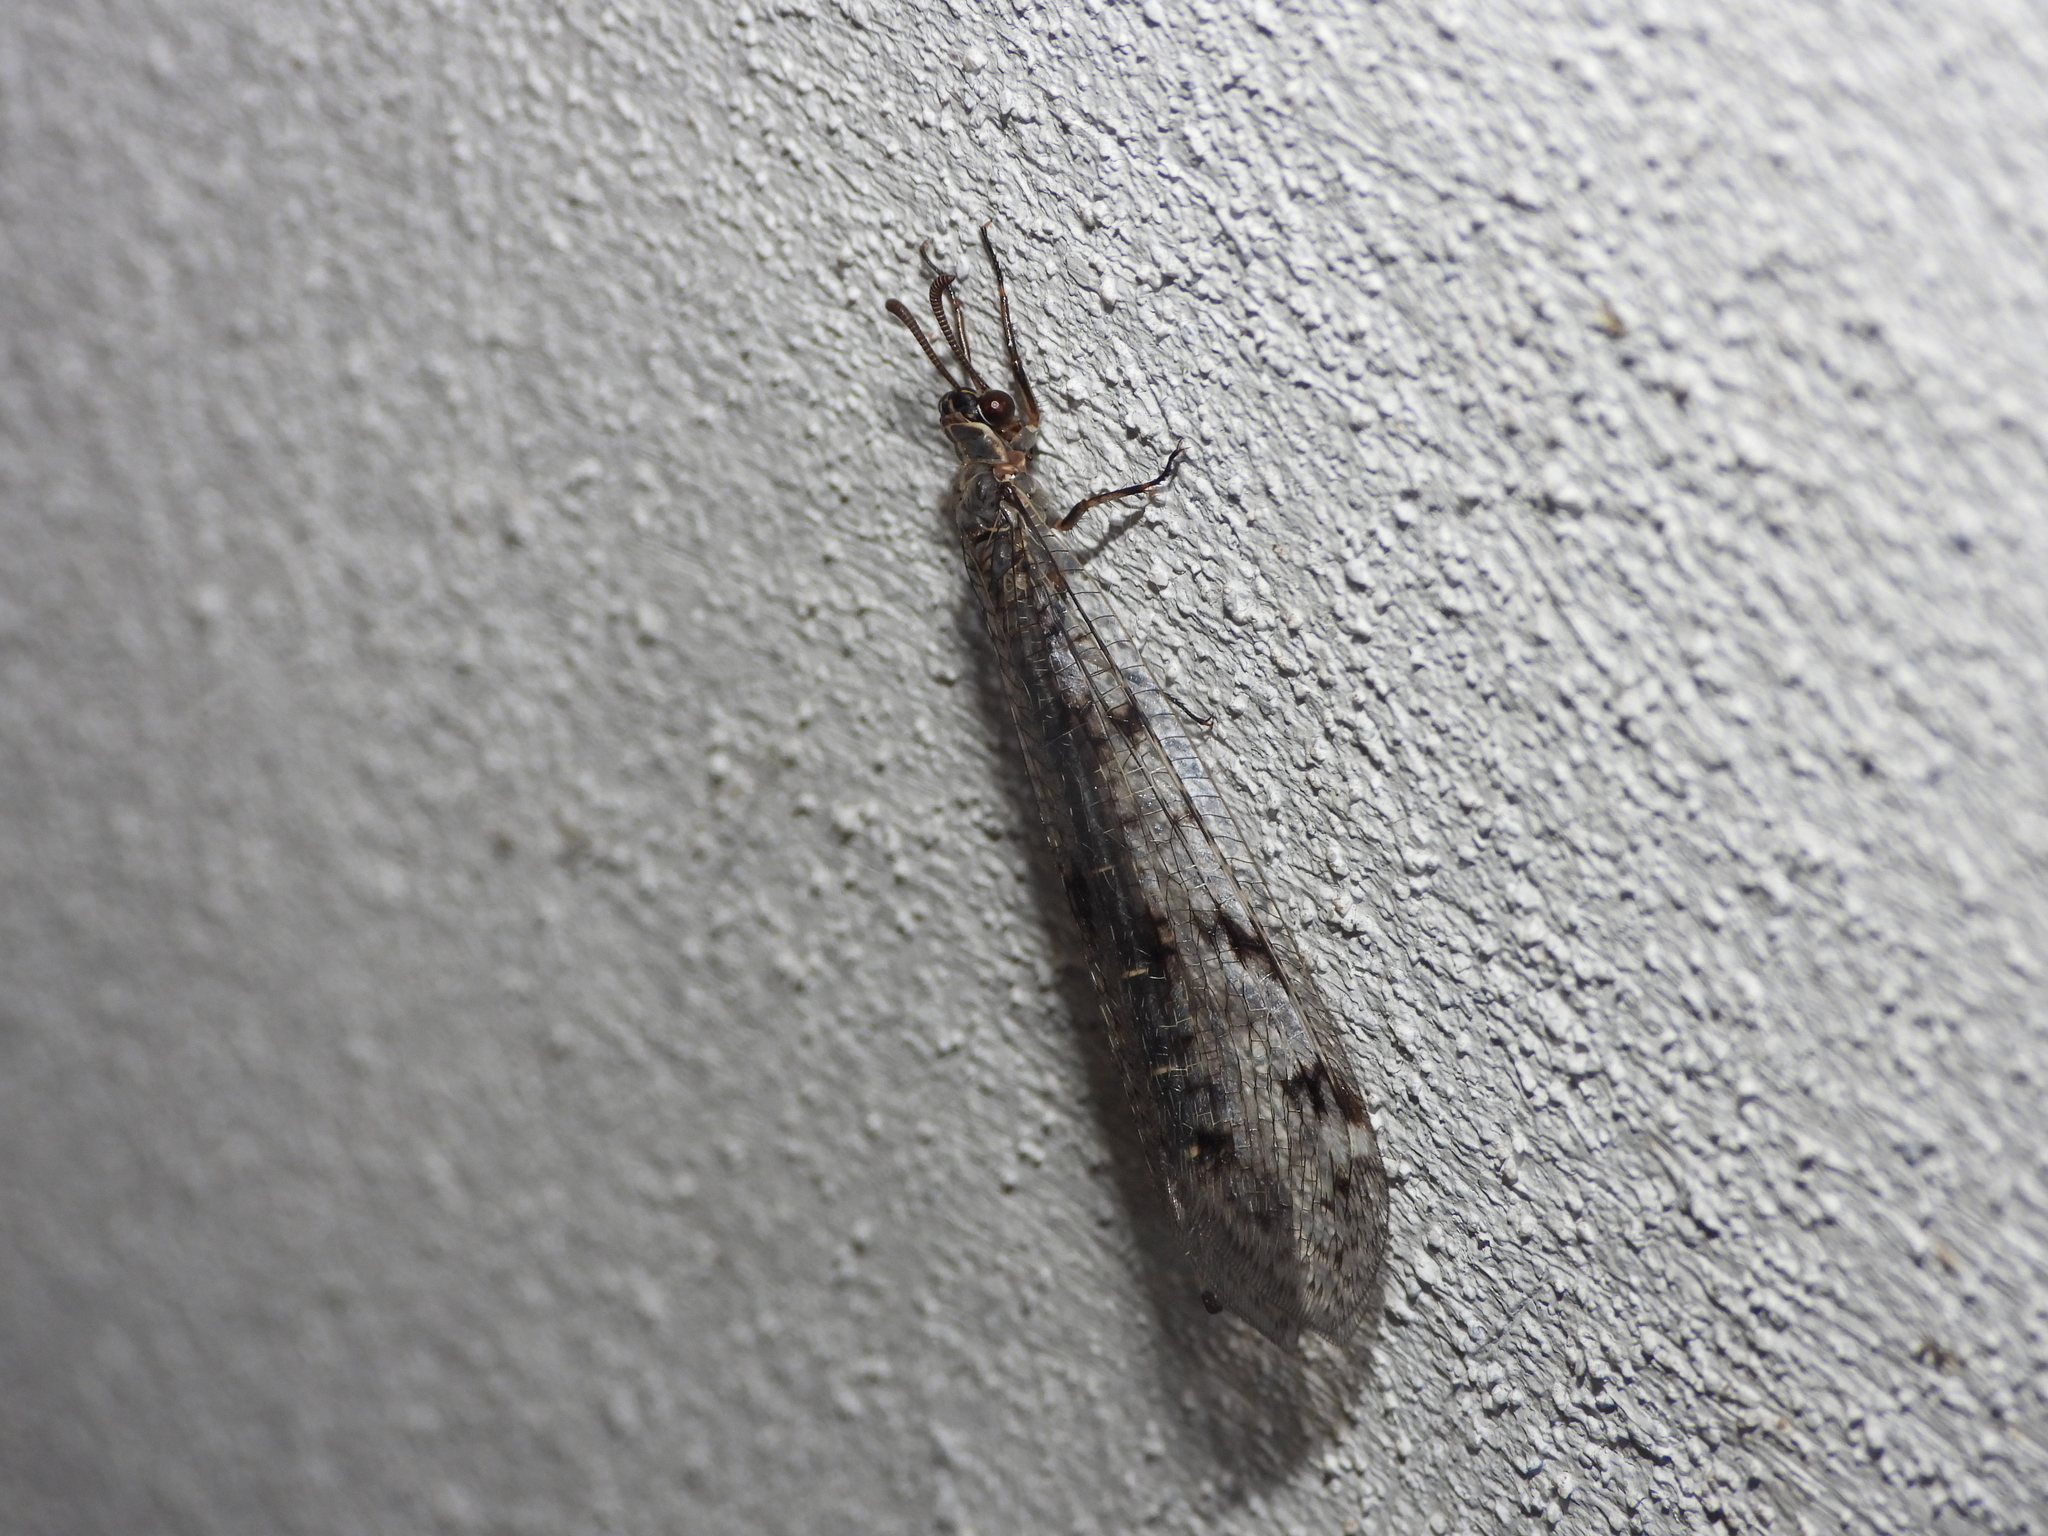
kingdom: Animalia
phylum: Arthropoda
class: Insecta
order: Neuroptera
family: Myrmeleontidae
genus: Euroleon
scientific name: Euroleon nostras
